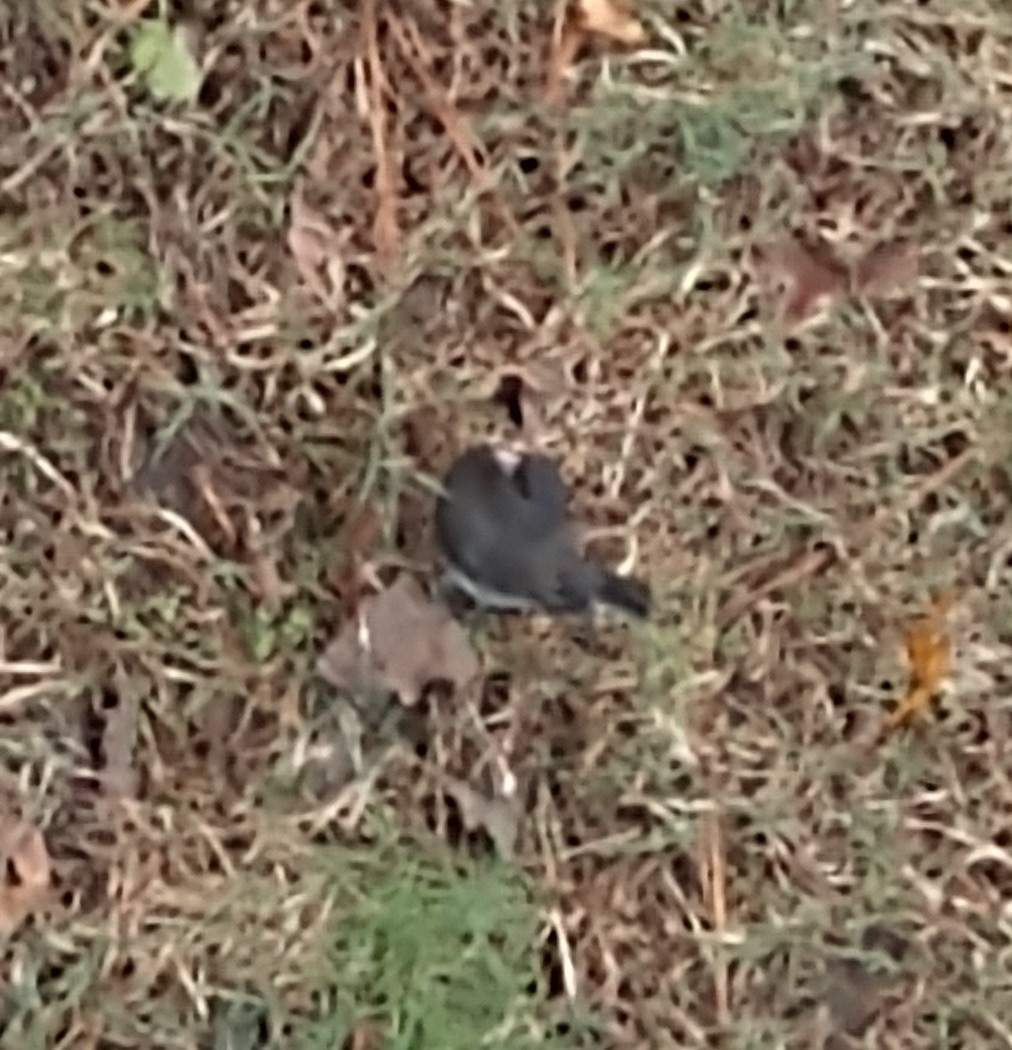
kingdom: Animalia
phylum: Chordata
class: Aves
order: Passeriformes
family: Passerellidae
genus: Junco
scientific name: Junco hyemalis
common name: Dark-eyed junco
